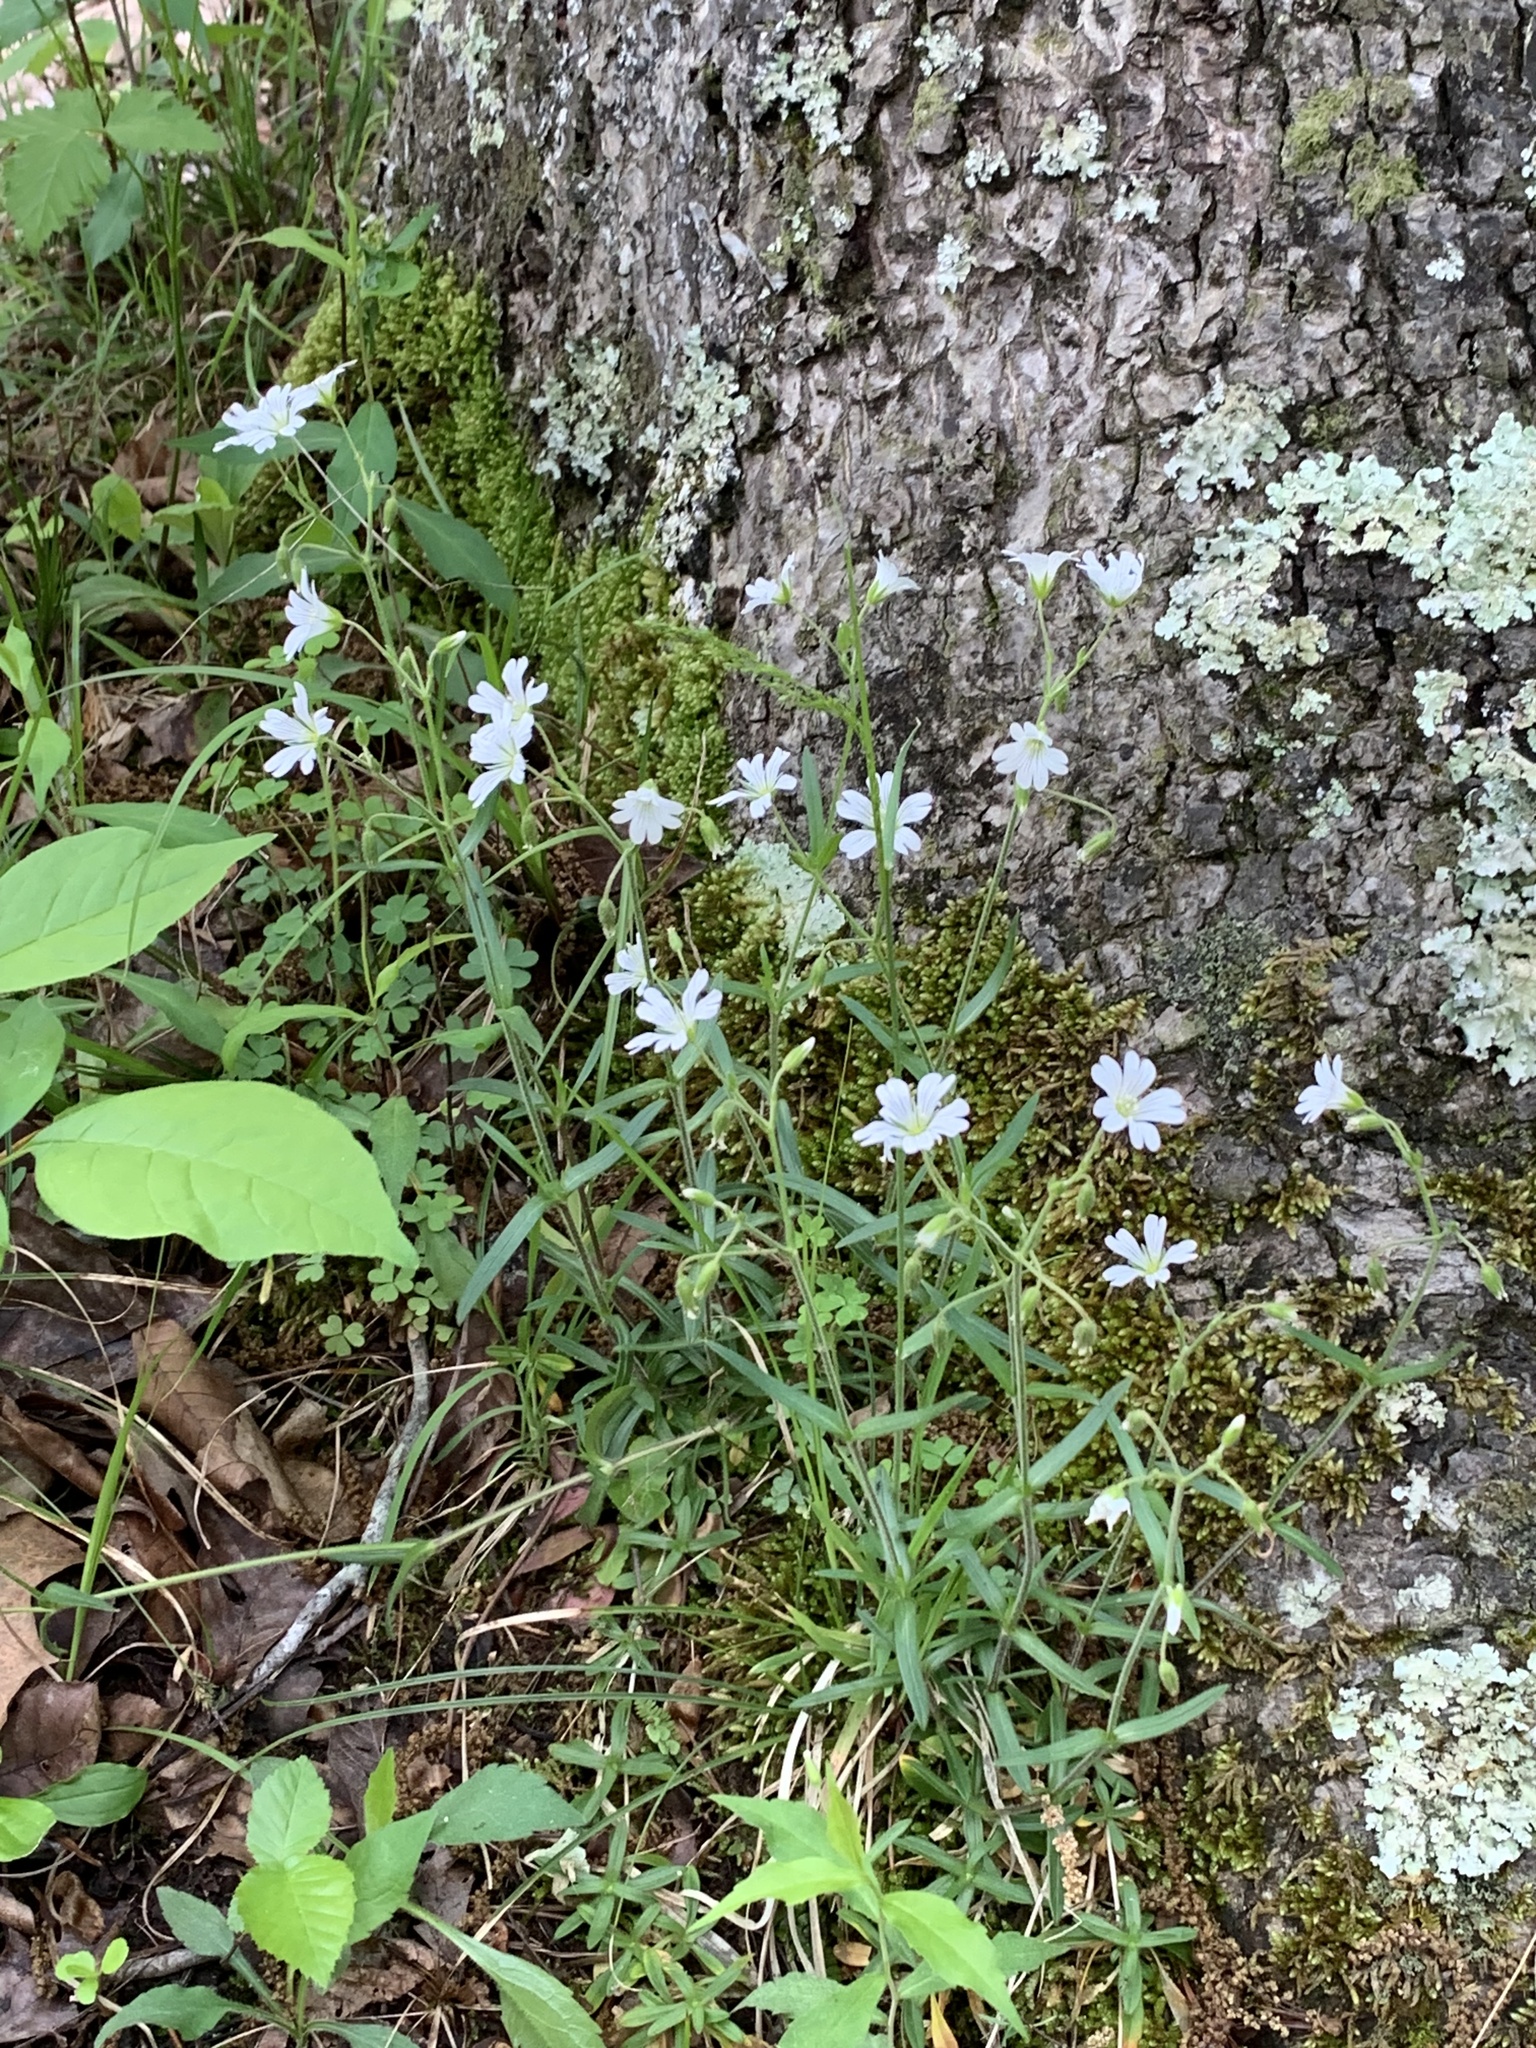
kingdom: Plantae
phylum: Tracheophyta
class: Magnoliopsida
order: Caryophyllales
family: Caryophyllaceae
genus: Cerastium
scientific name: Cerastium arvense
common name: Field mouse-ear
